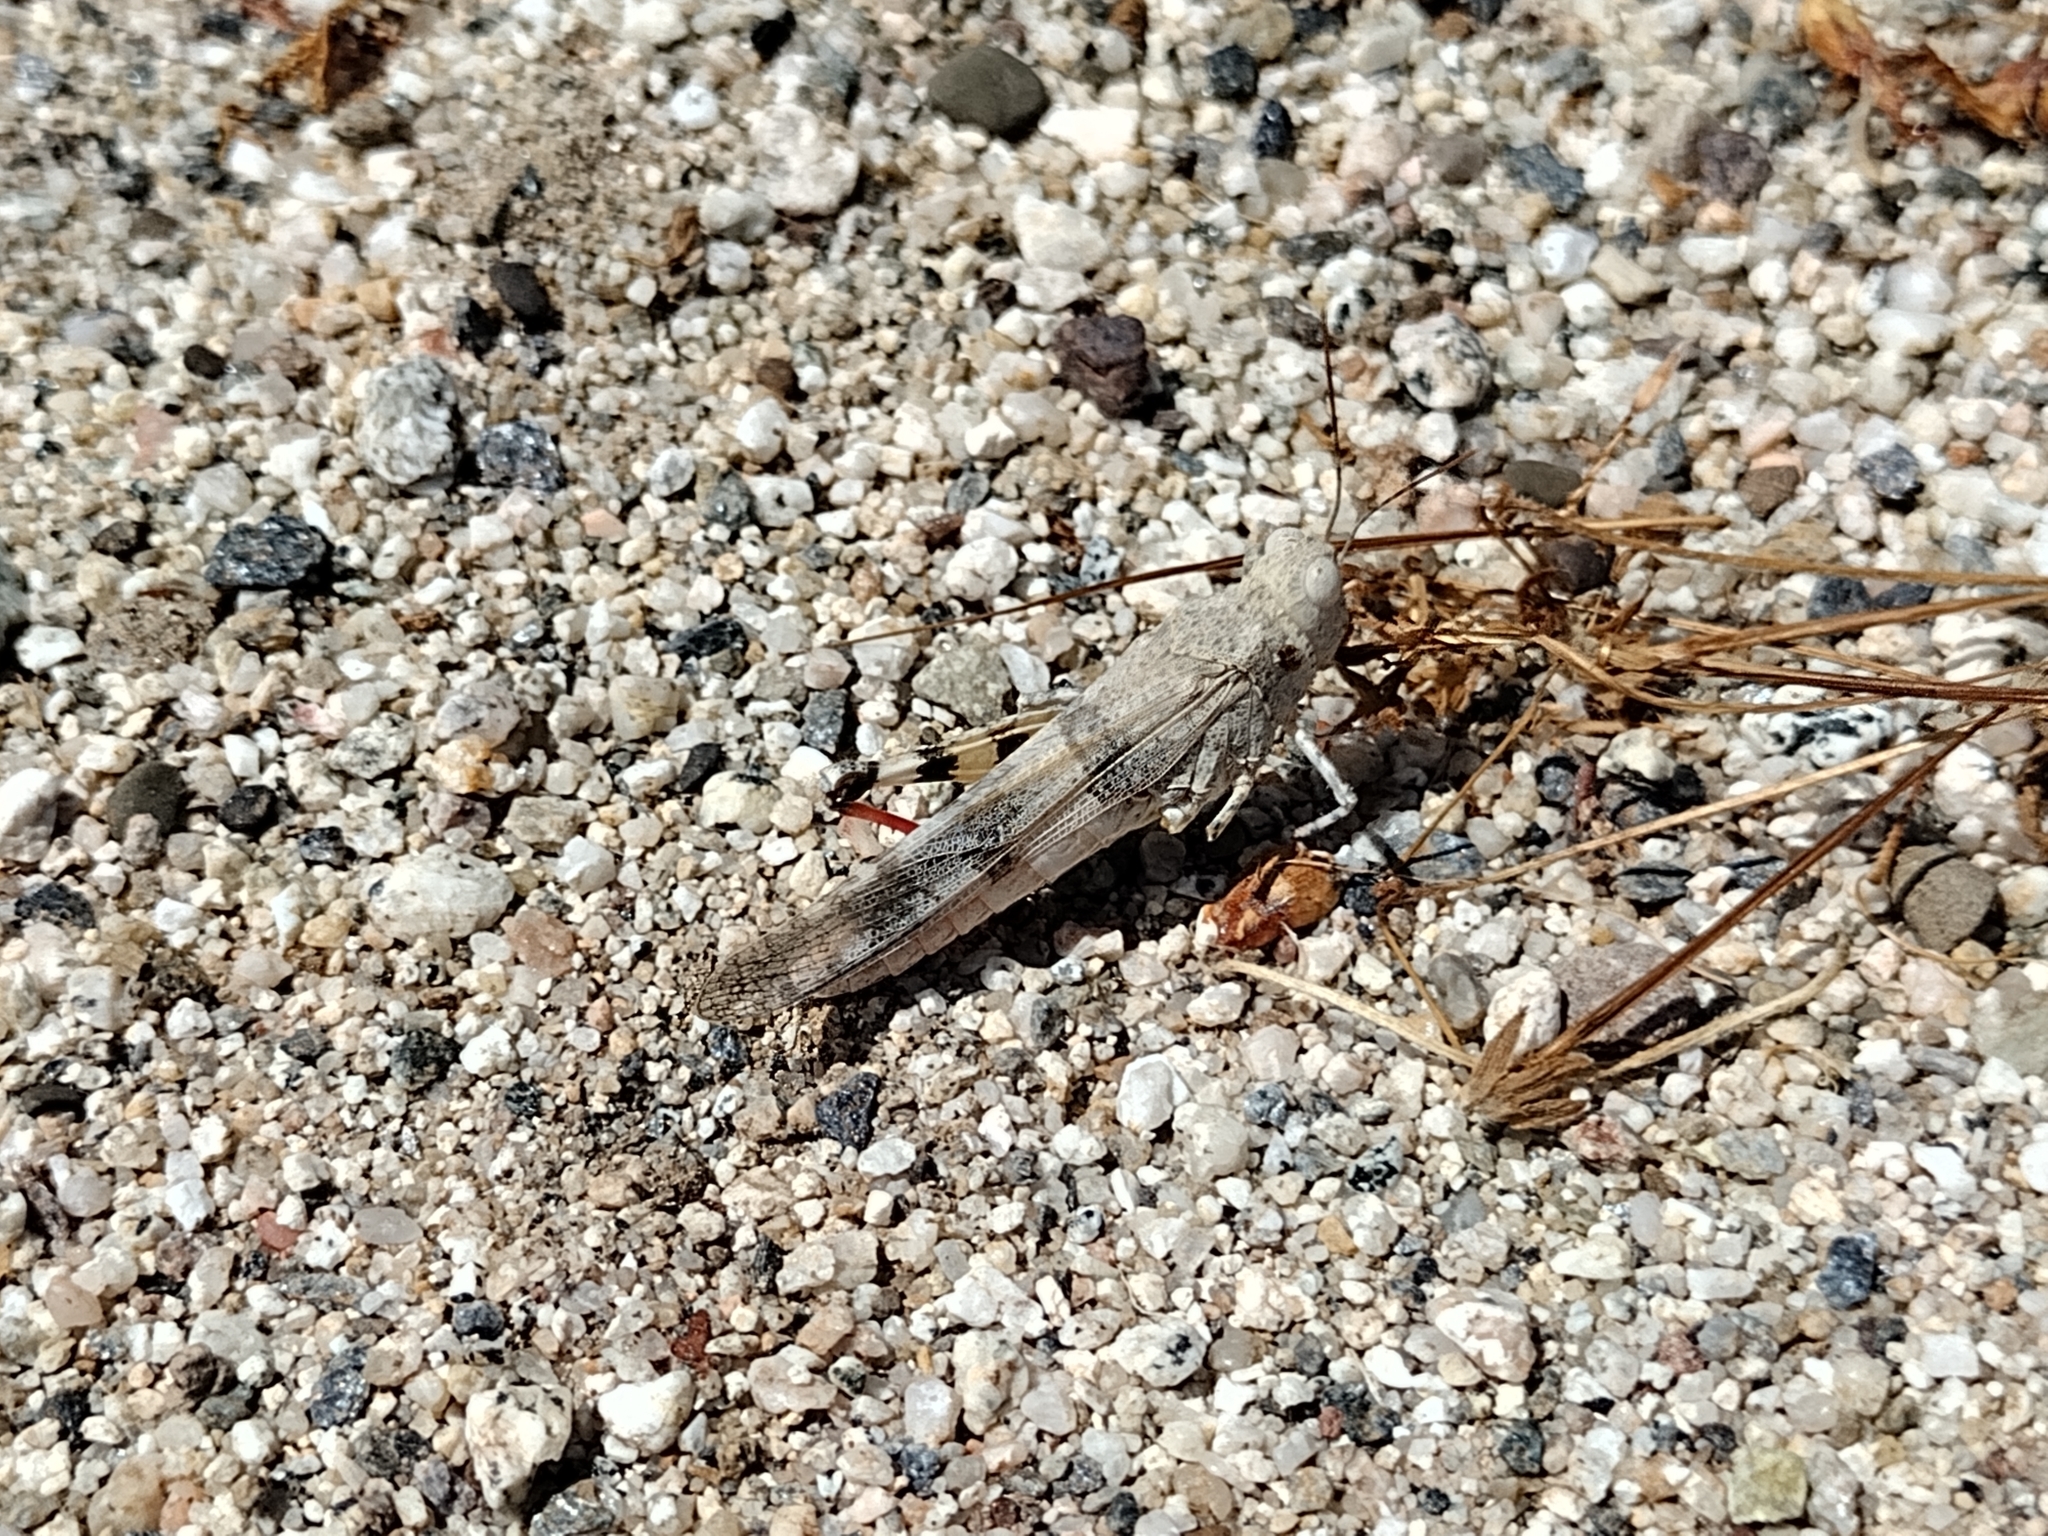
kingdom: Animalia
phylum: Arthropoda
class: Insecta
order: Orthoptera
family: Acrididae
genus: Trimerotropis
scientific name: Trimerotropis californica
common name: California band-winged grasshopper
